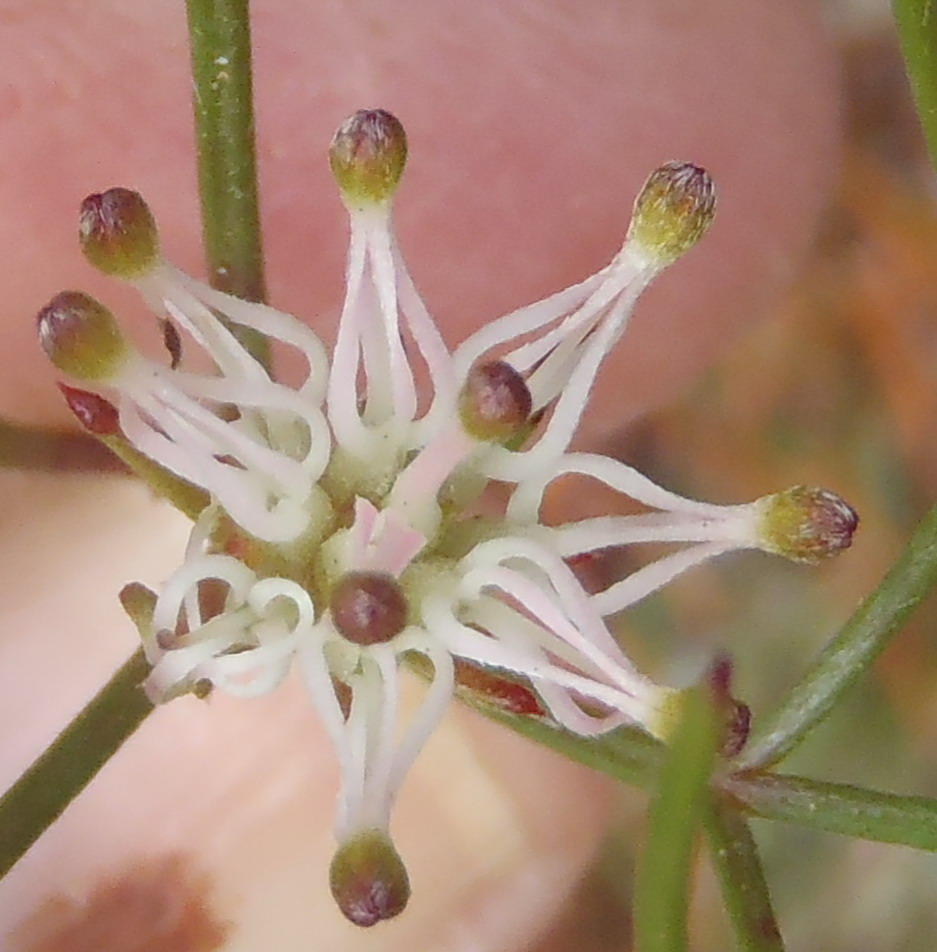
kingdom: Plantae
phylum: Tracheophyta
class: Magnoliopsida
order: Proteales
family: Proteaceae
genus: Serruria
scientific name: Serruria fasciflora
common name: Common pin spiderhead
